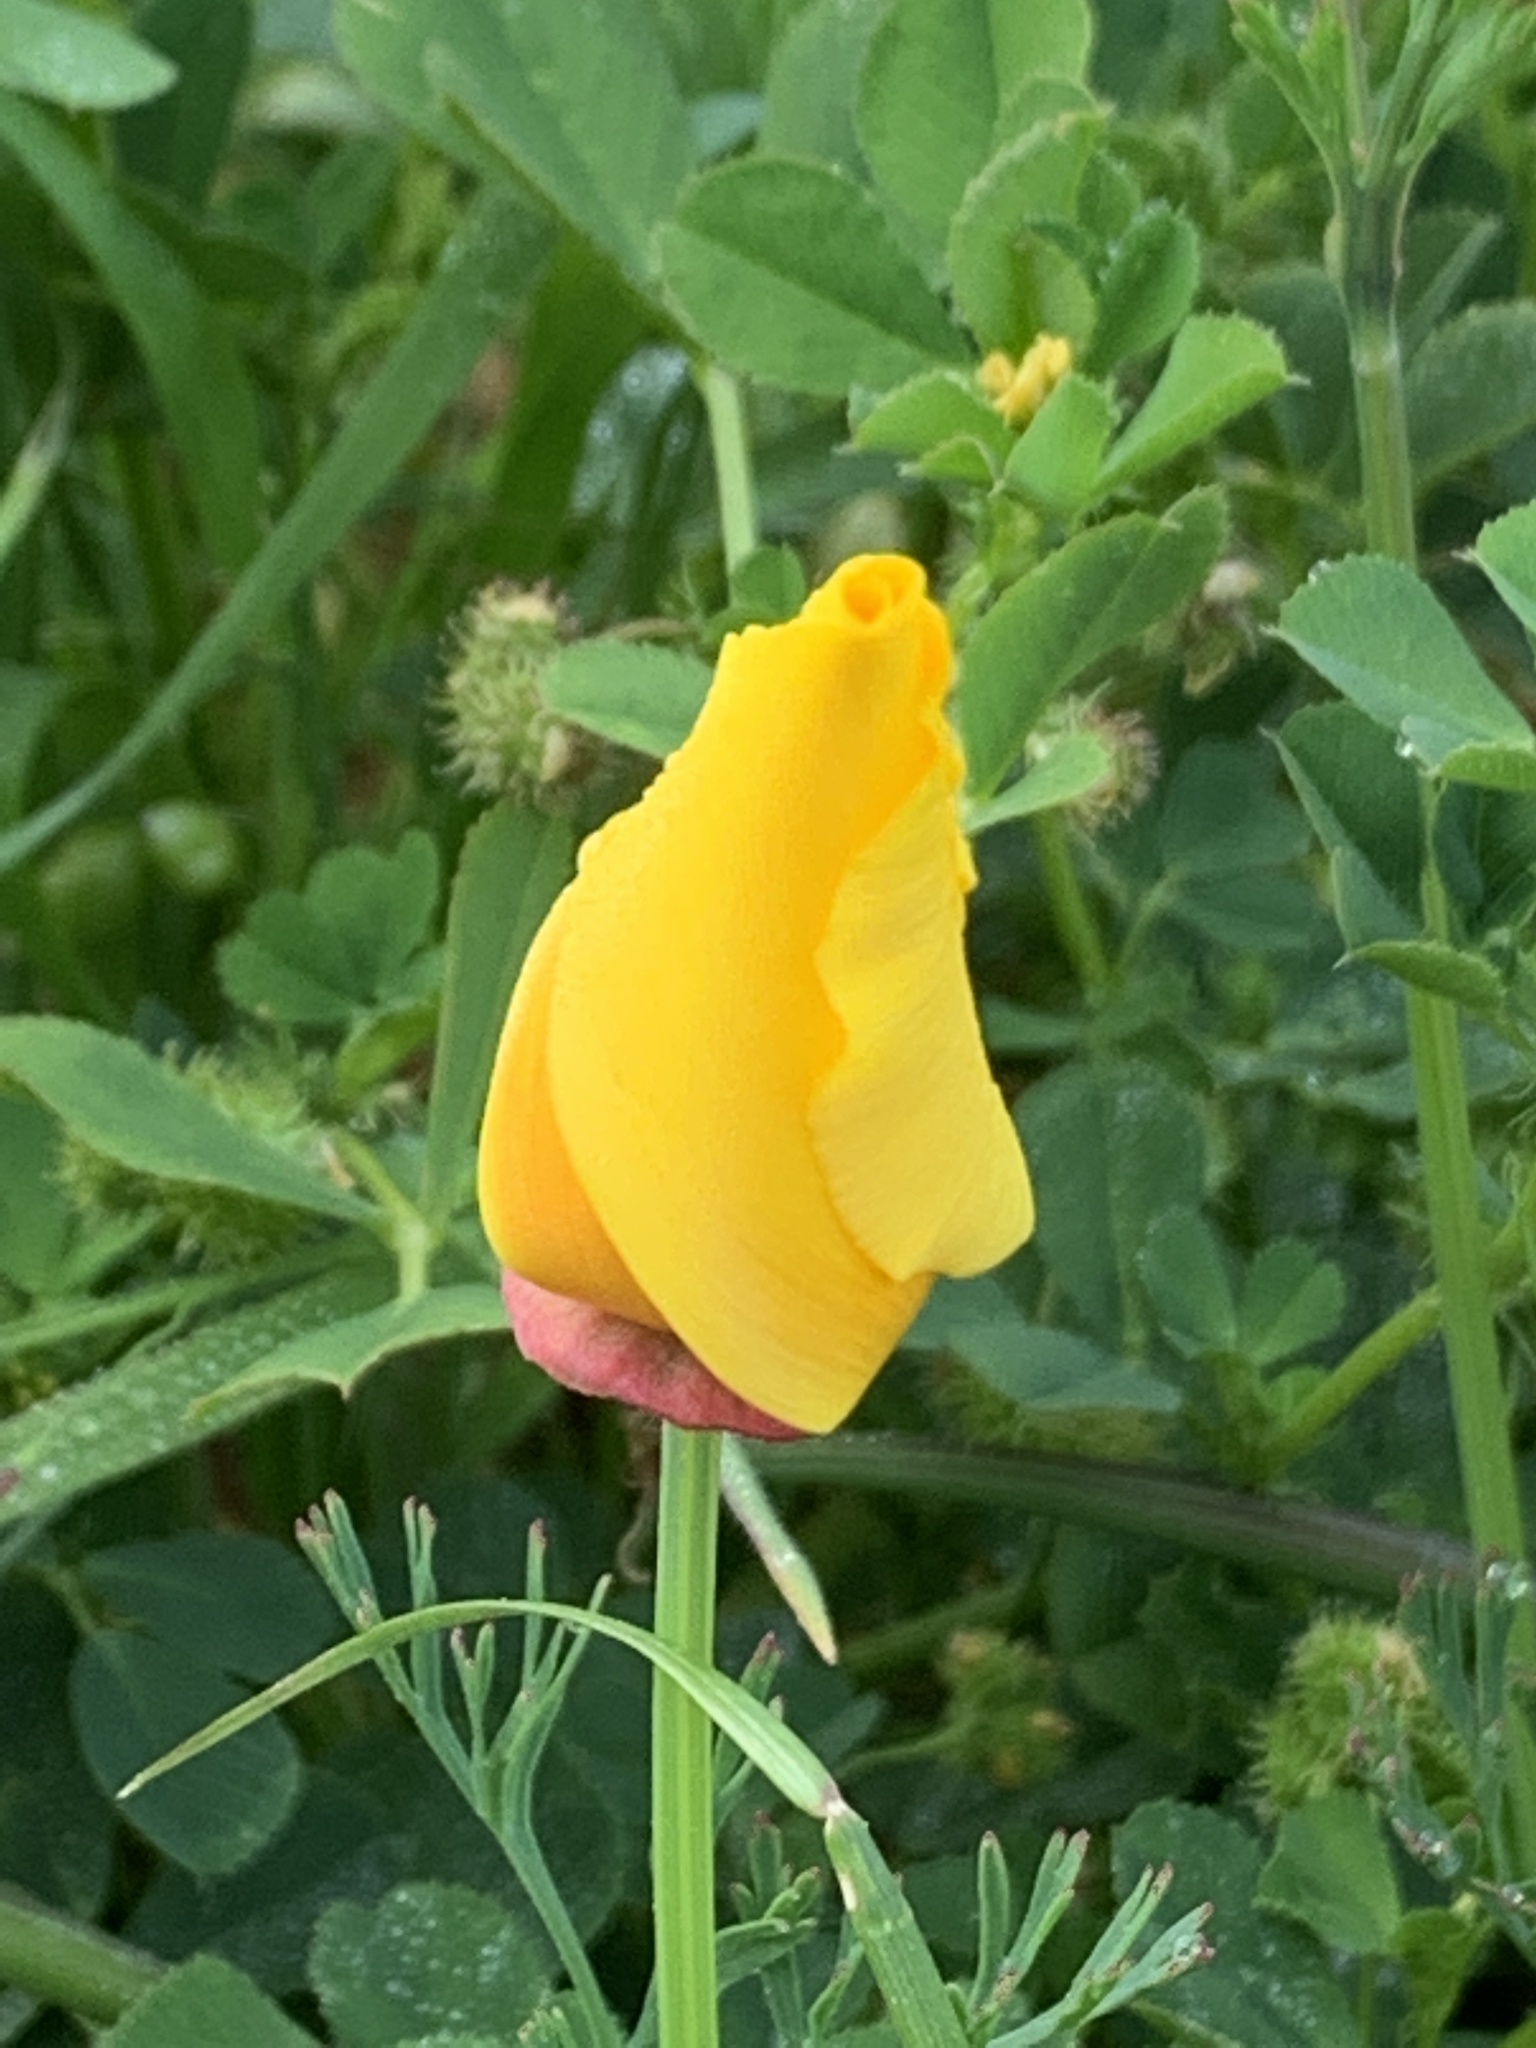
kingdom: Plantae
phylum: Tracheophyta
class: Magnoliopsida
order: Ranunculales
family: Papaveraceae
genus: Eschscholzia
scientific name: Eschscholzia californica
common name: California poppy
